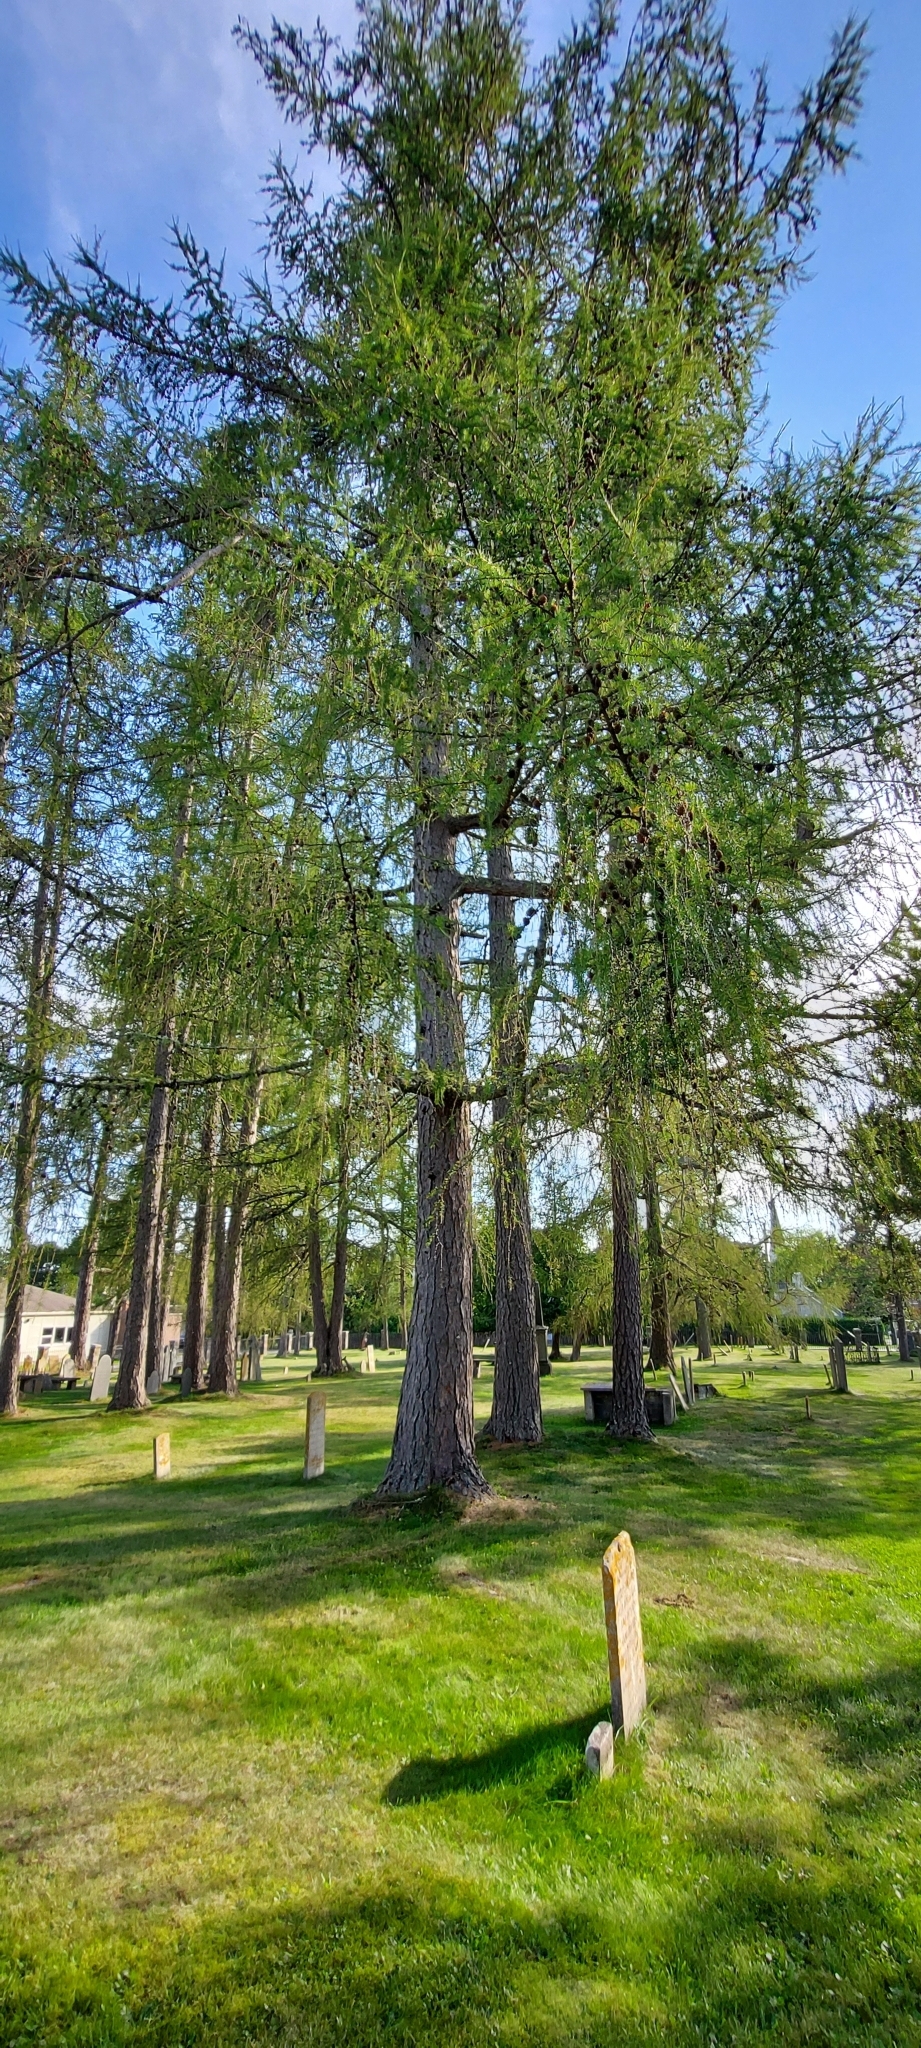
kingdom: Plantae
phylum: Tracheophyta
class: Pinopsida
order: Pinales
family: Pinaceae
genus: Larix
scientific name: Larix laricina
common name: American larch
